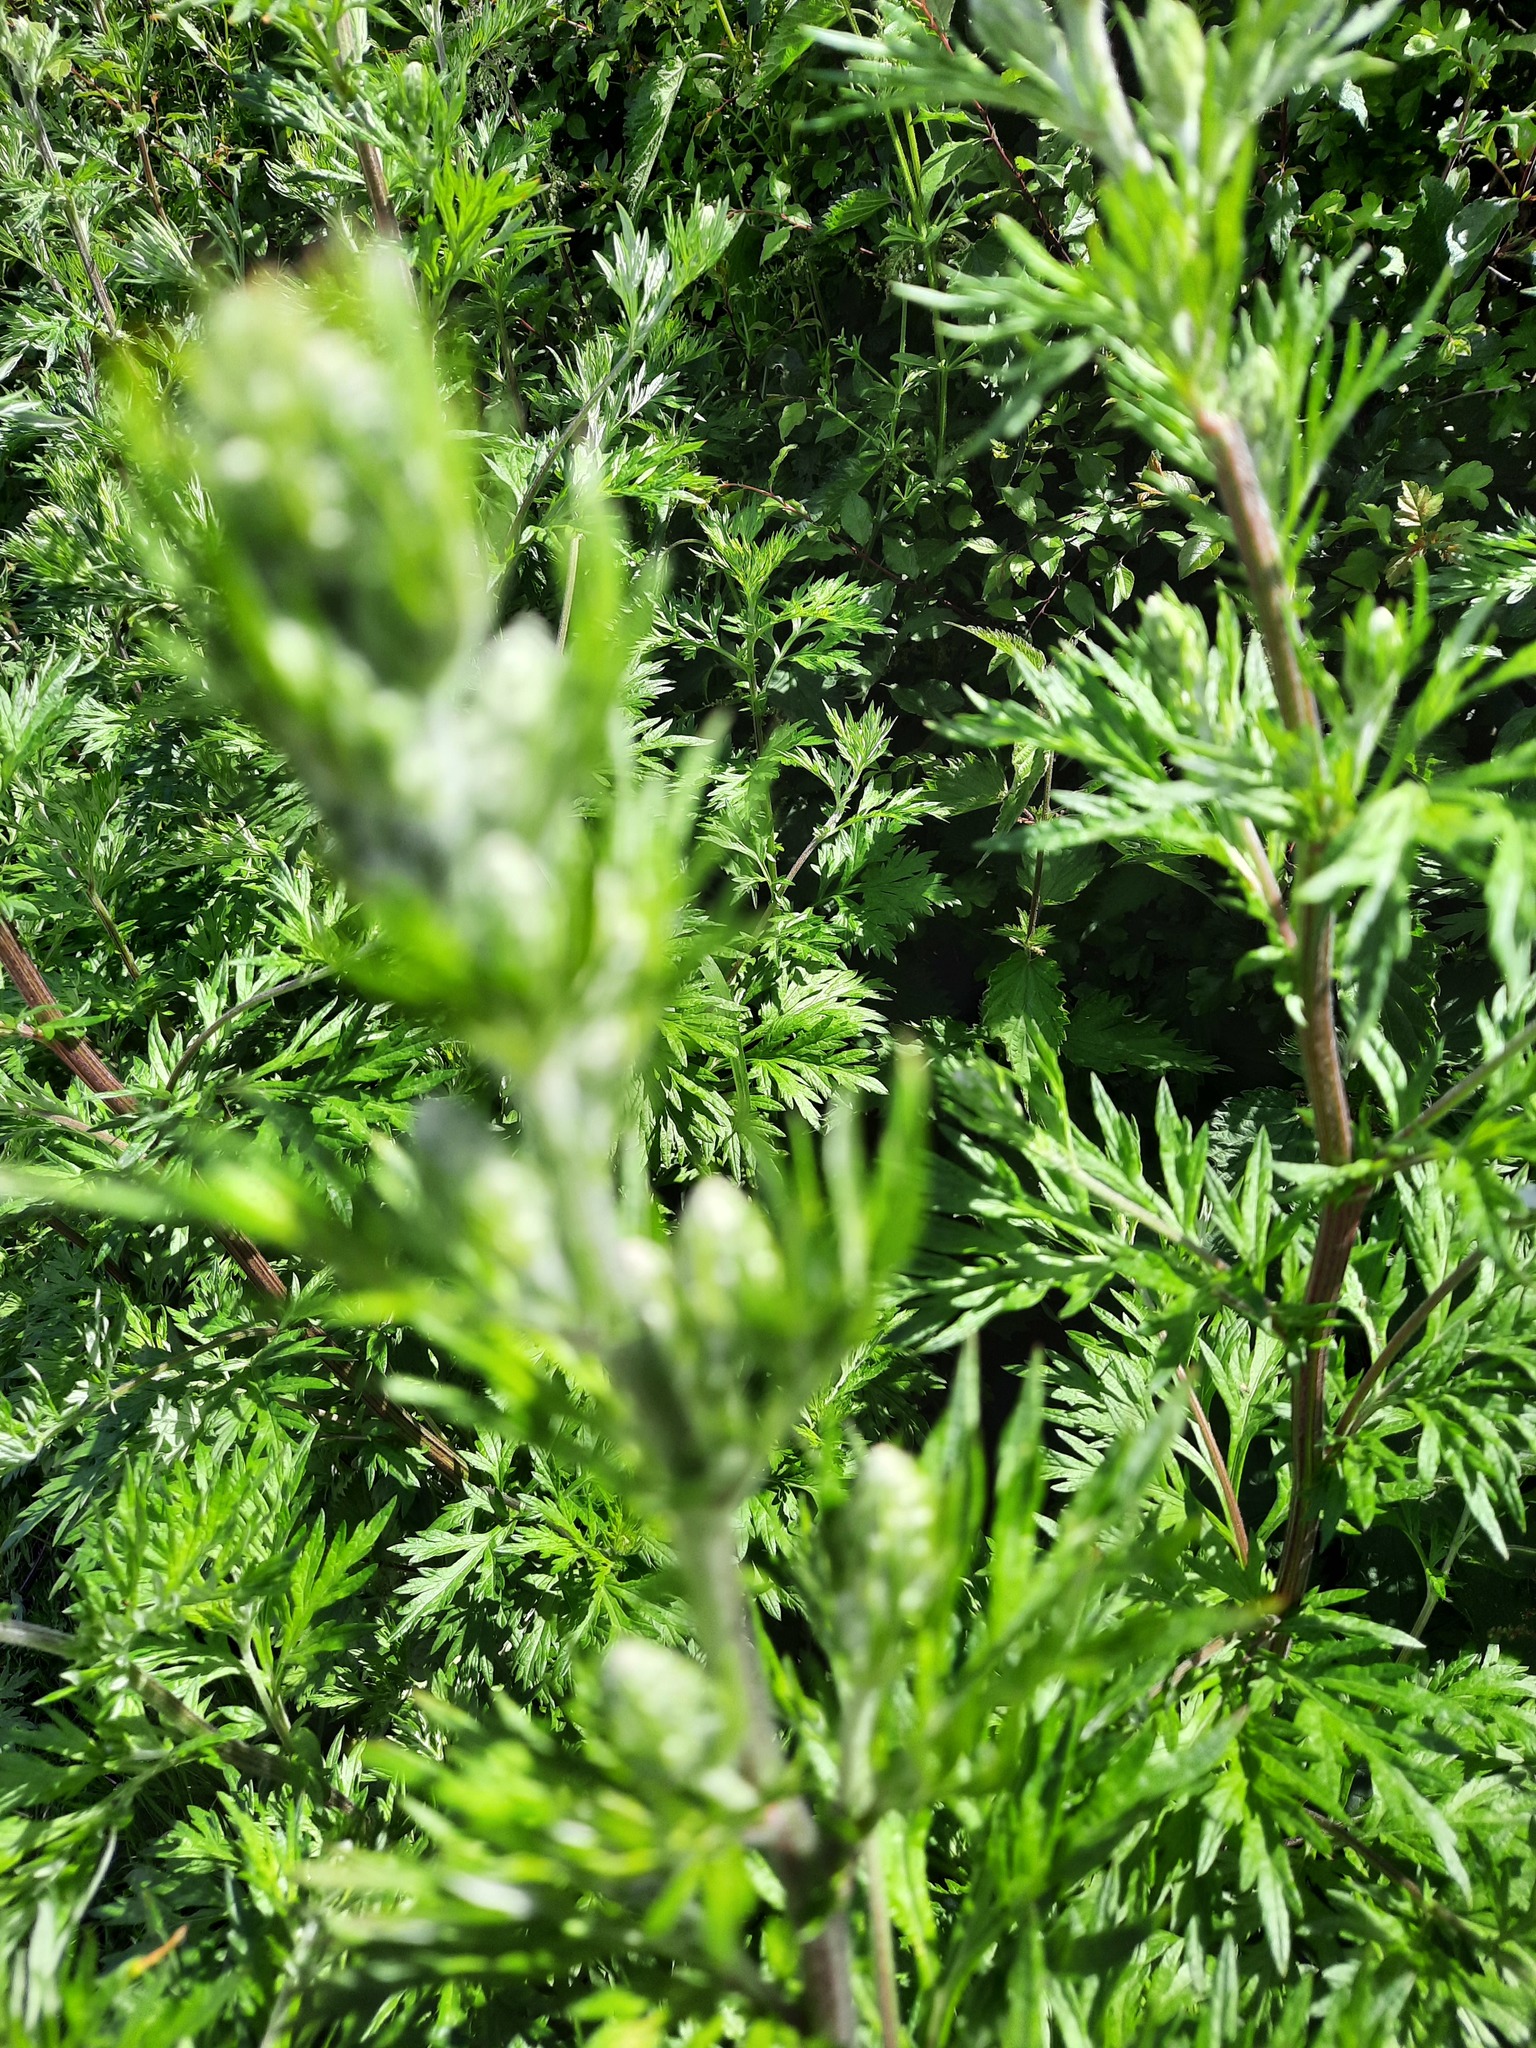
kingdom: Plantae
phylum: Tracheophyta
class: Magnoliopsida
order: Asterales
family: Asteraceae
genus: Artemisia
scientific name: Artemisia vulgaris
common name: Mugwort
